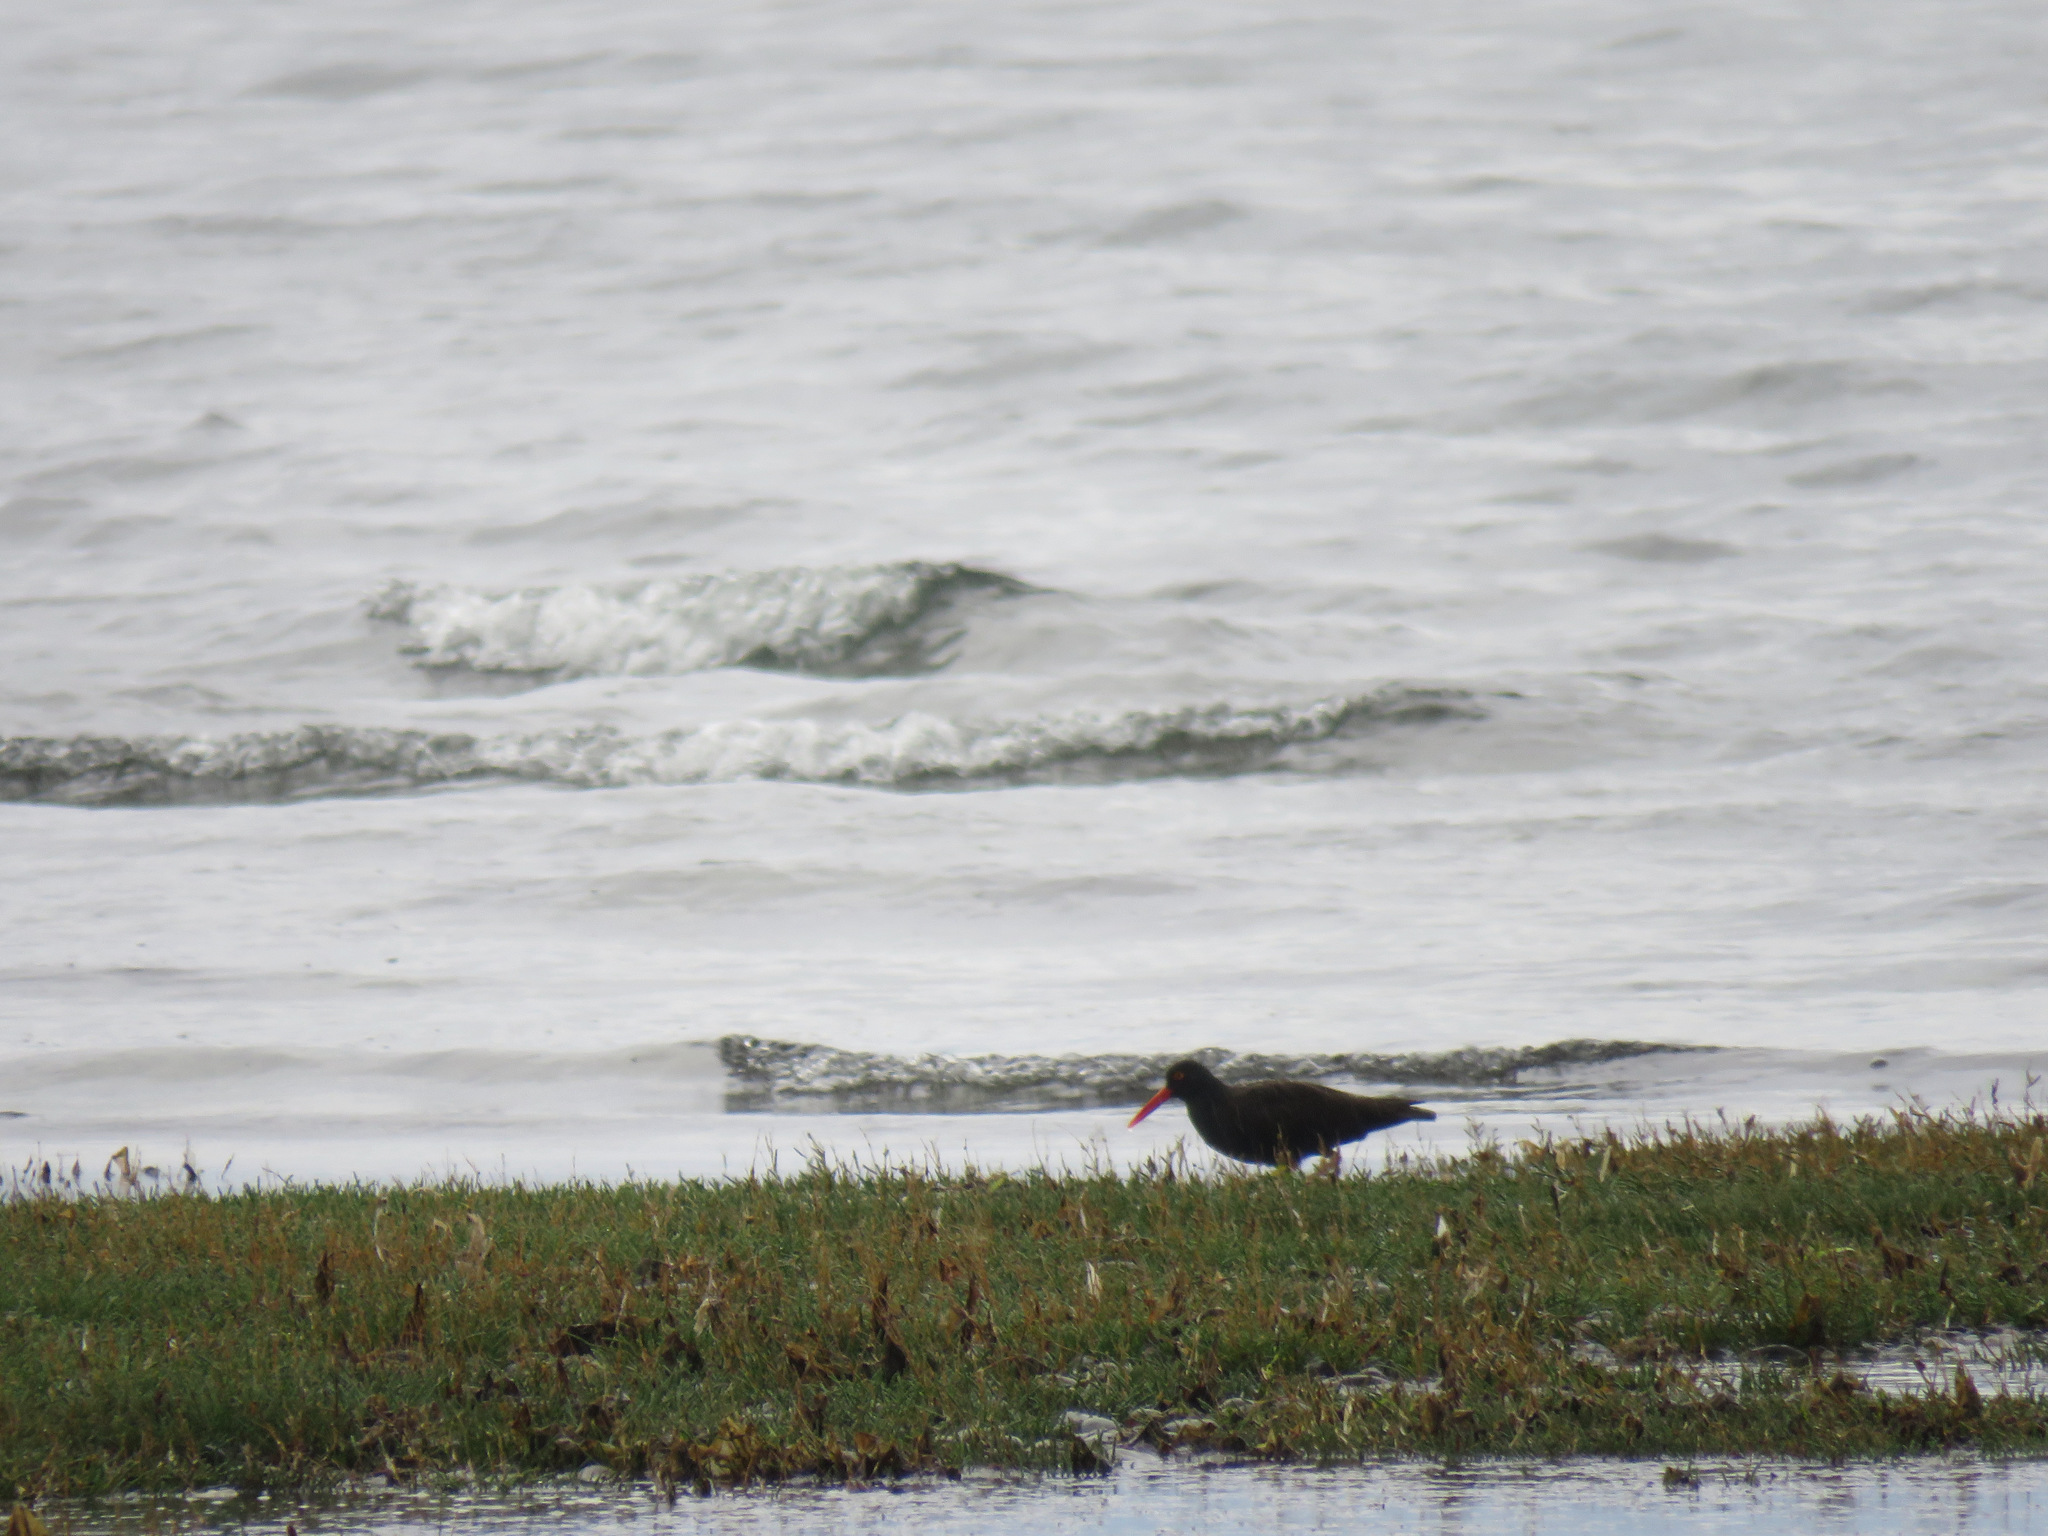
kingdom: Animalia
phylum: Chordata
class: Aves
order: Charadriiformes
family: Haematopodidae
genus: Haematopus
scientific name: Haematopus bachmani
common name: Black oystercatcher
